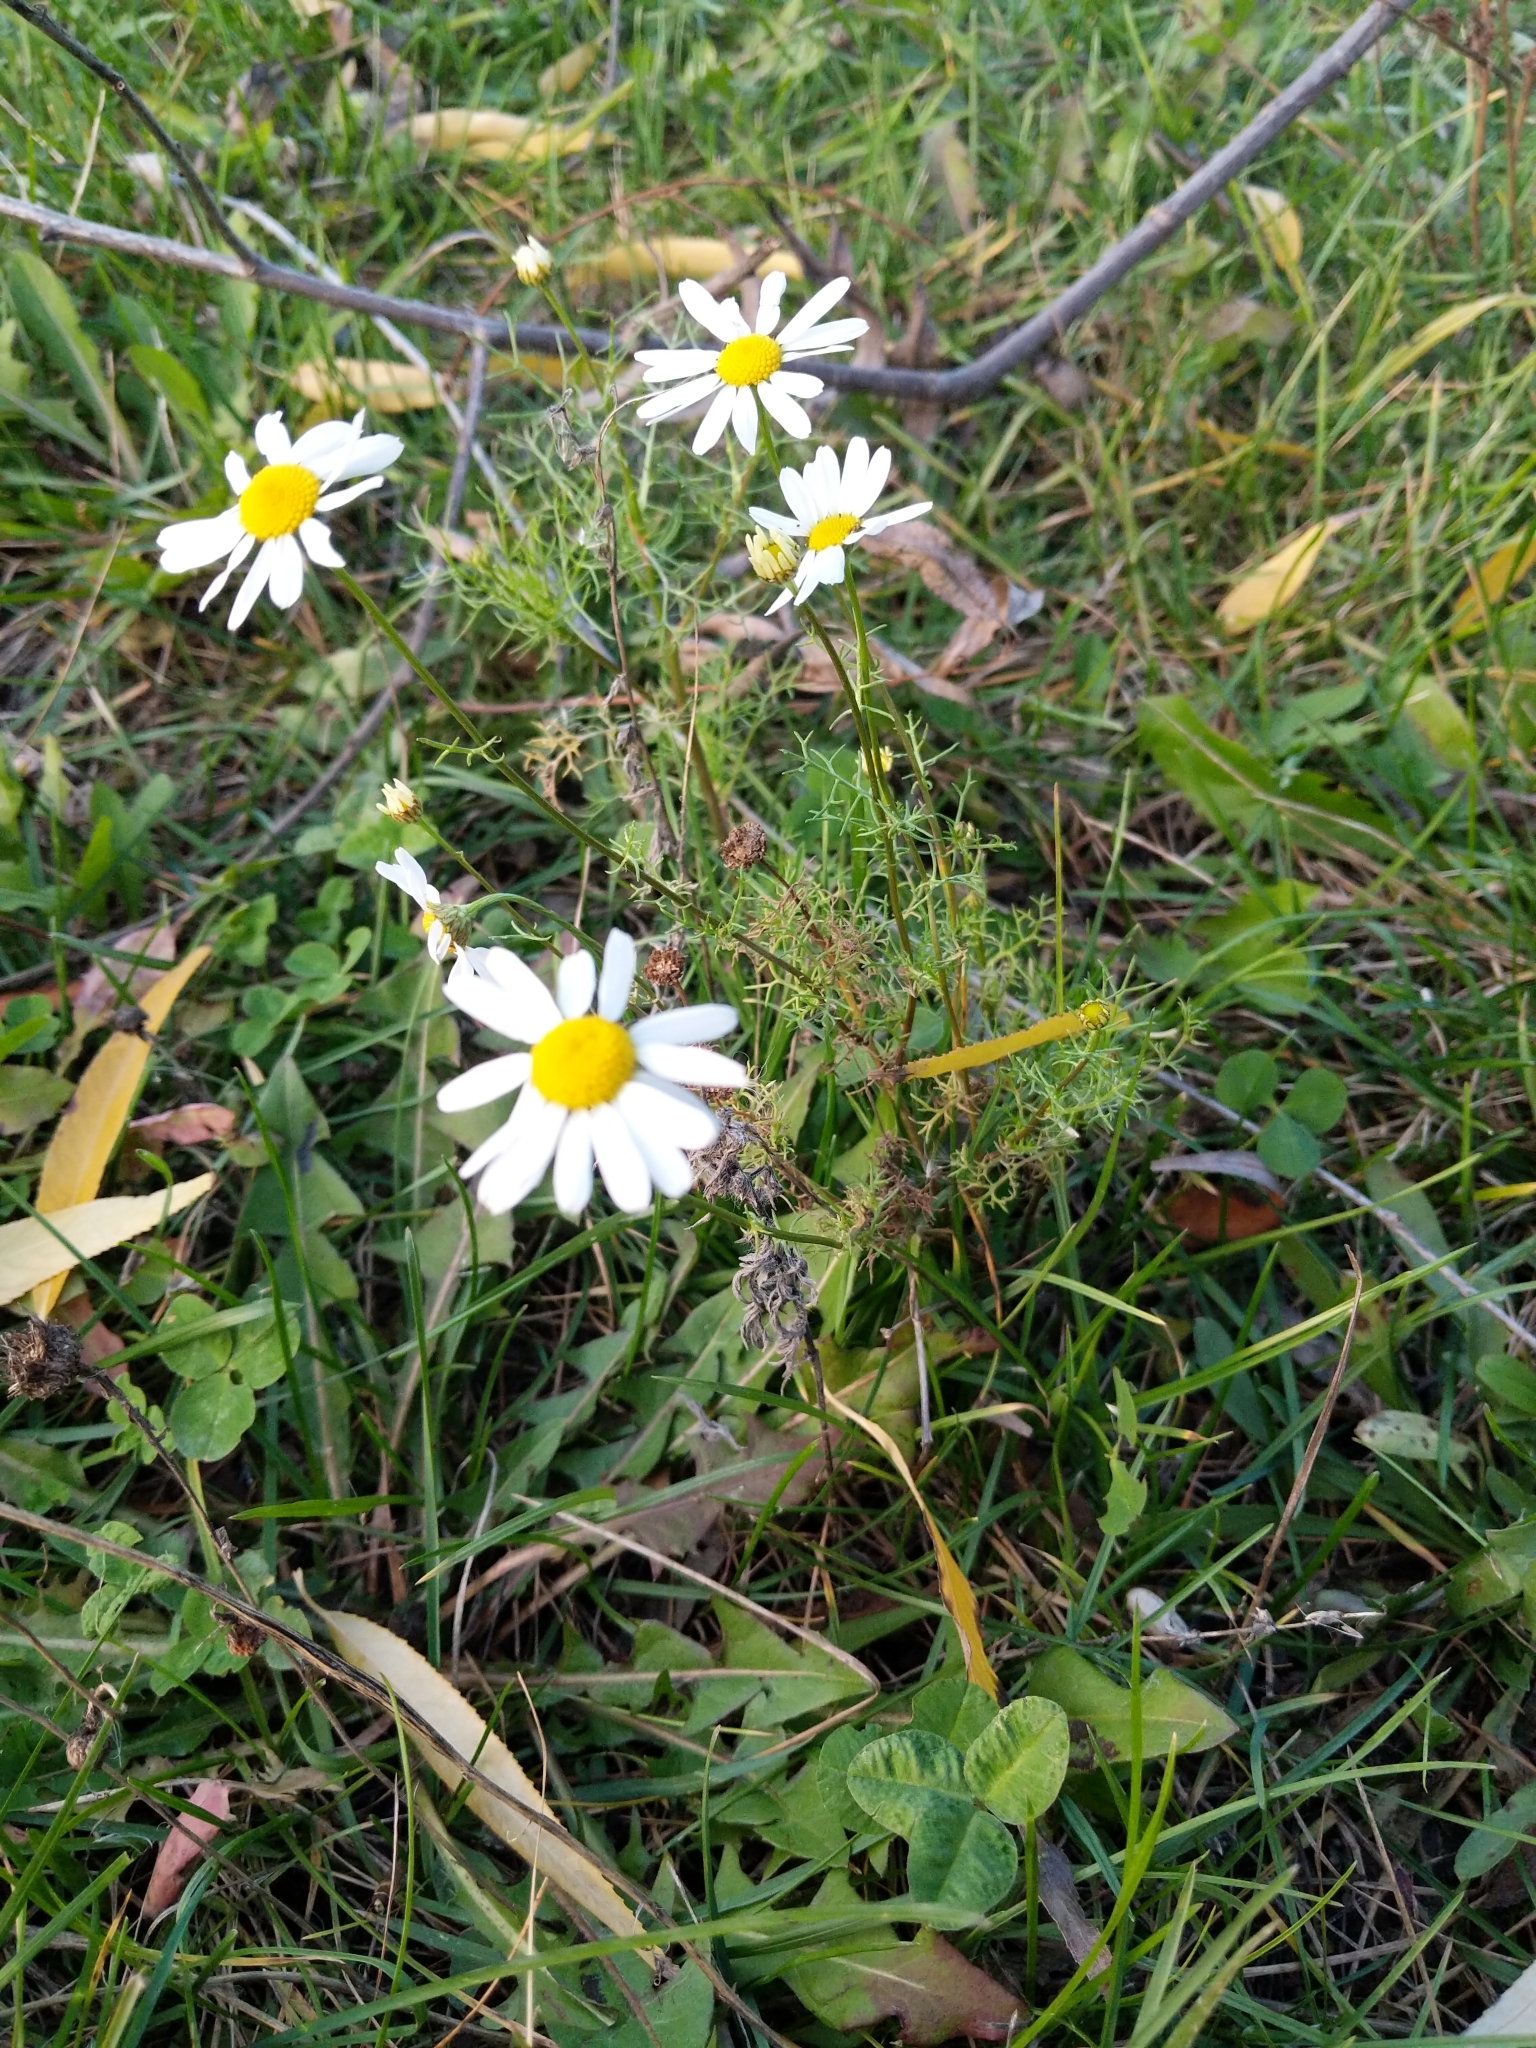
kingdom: Plantae
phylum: Tracheophyta
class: Magnoliopsida
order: Asterales
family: Asteraceae
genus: Tripleurospermum
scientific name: Tripleurospermum inodorum
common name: Scentless mayweed
